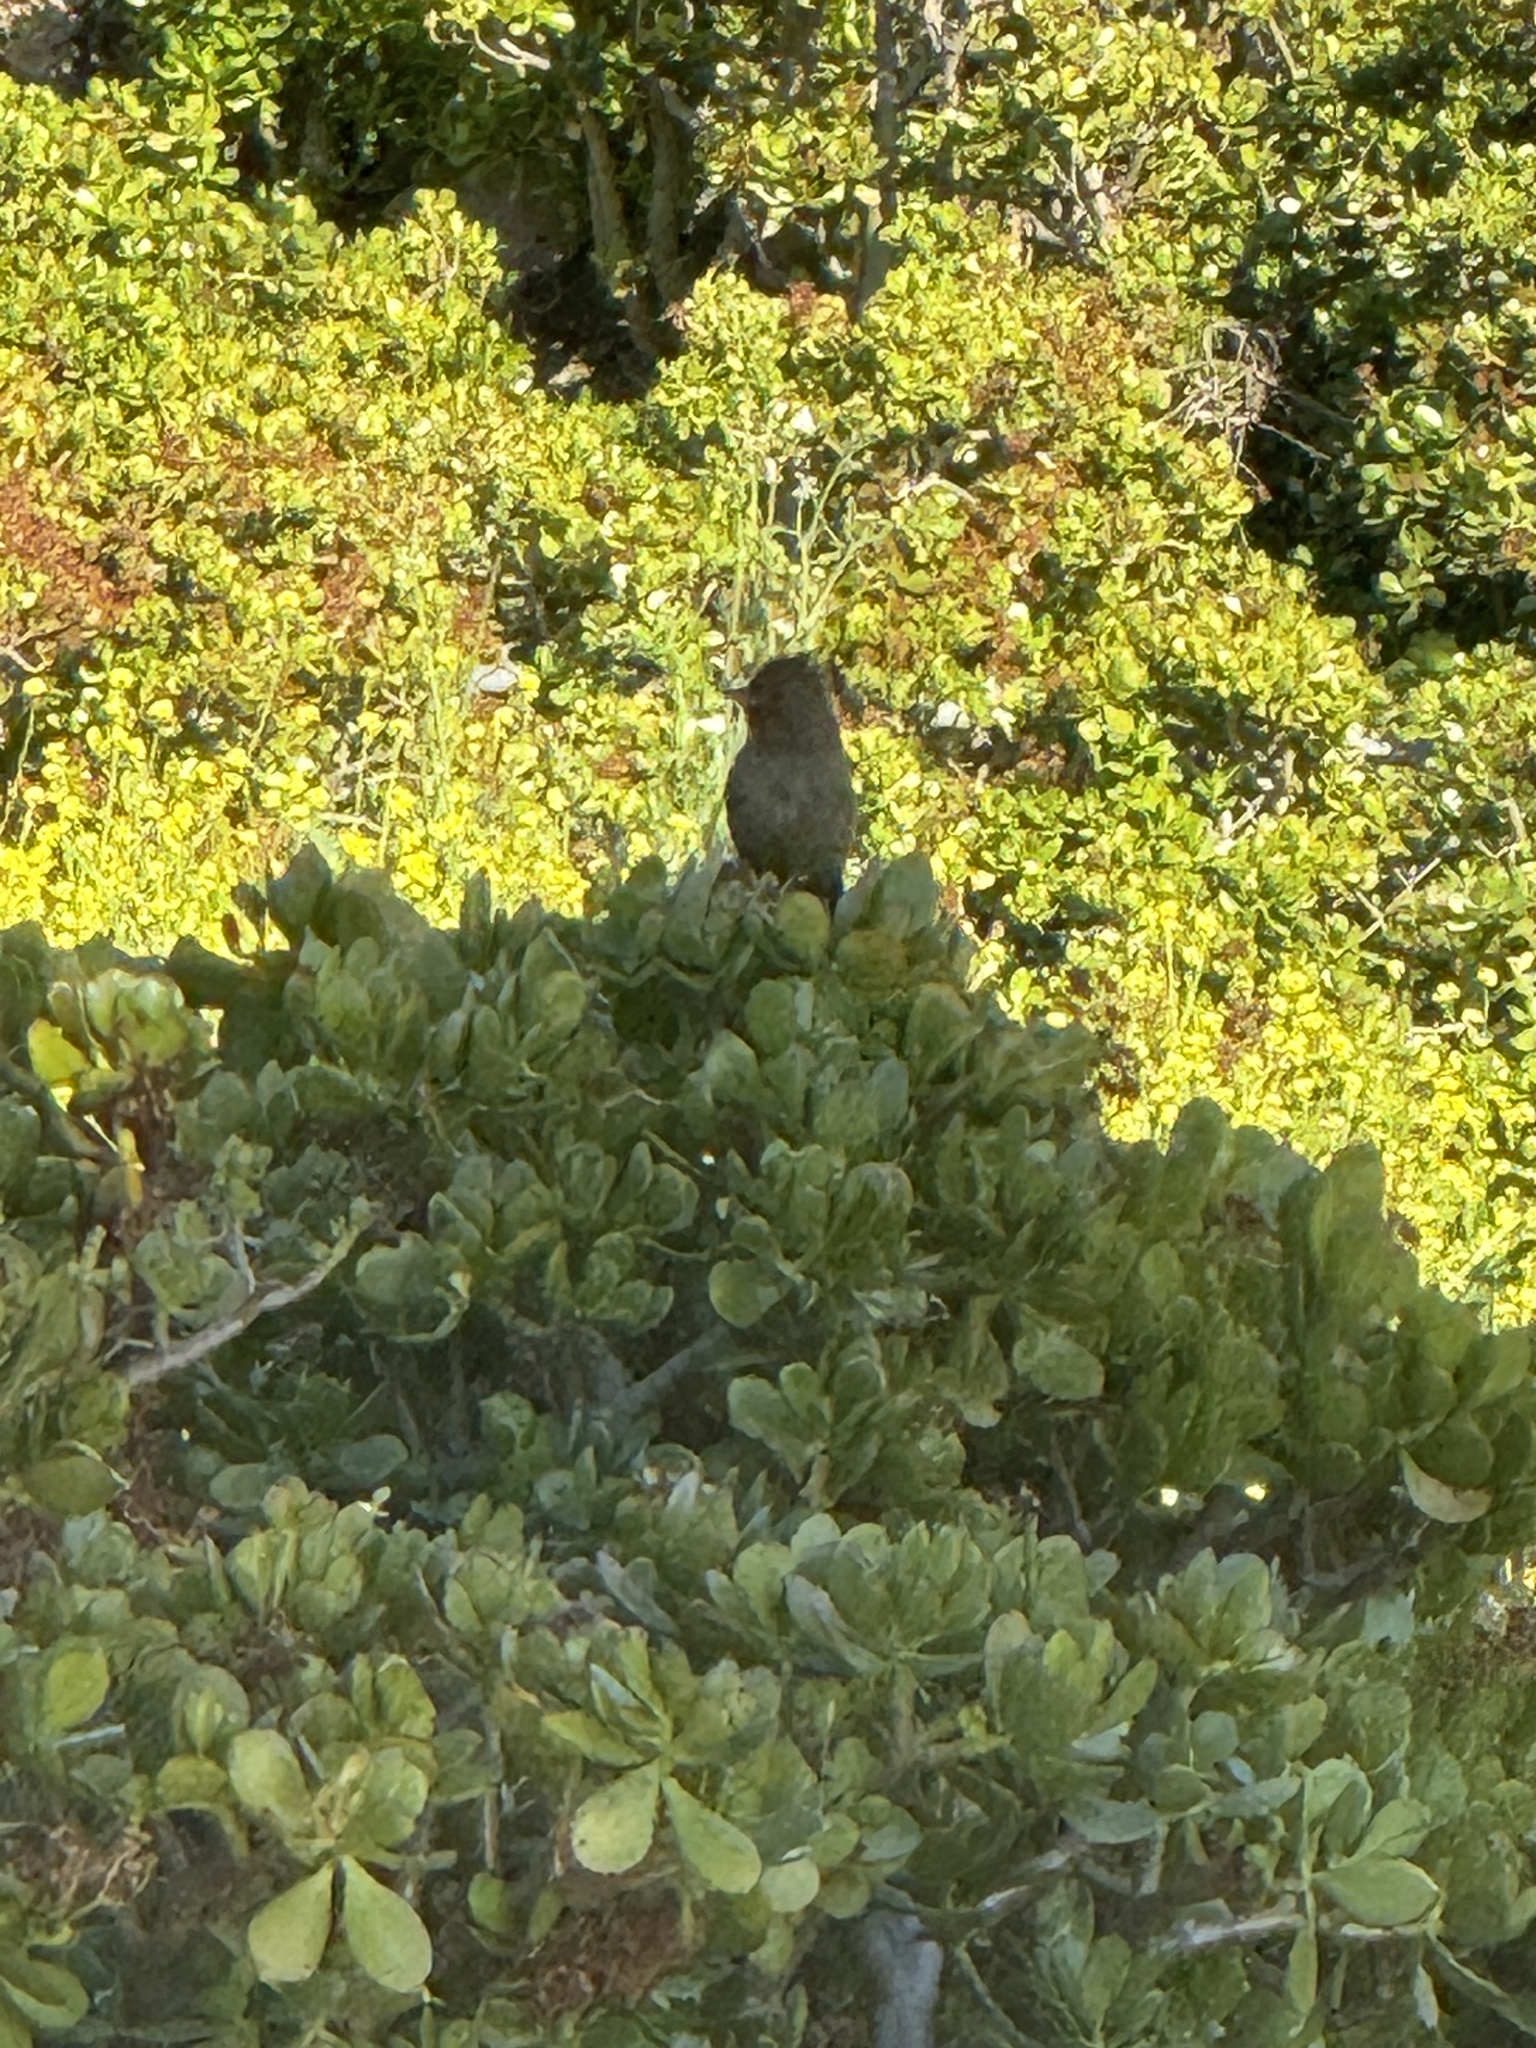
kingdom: Animalia
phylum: Chordata
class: Aves
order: Passeriformes
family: Passerellidae
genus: Melozone
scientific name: Melozone crissalis
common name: California towhee
